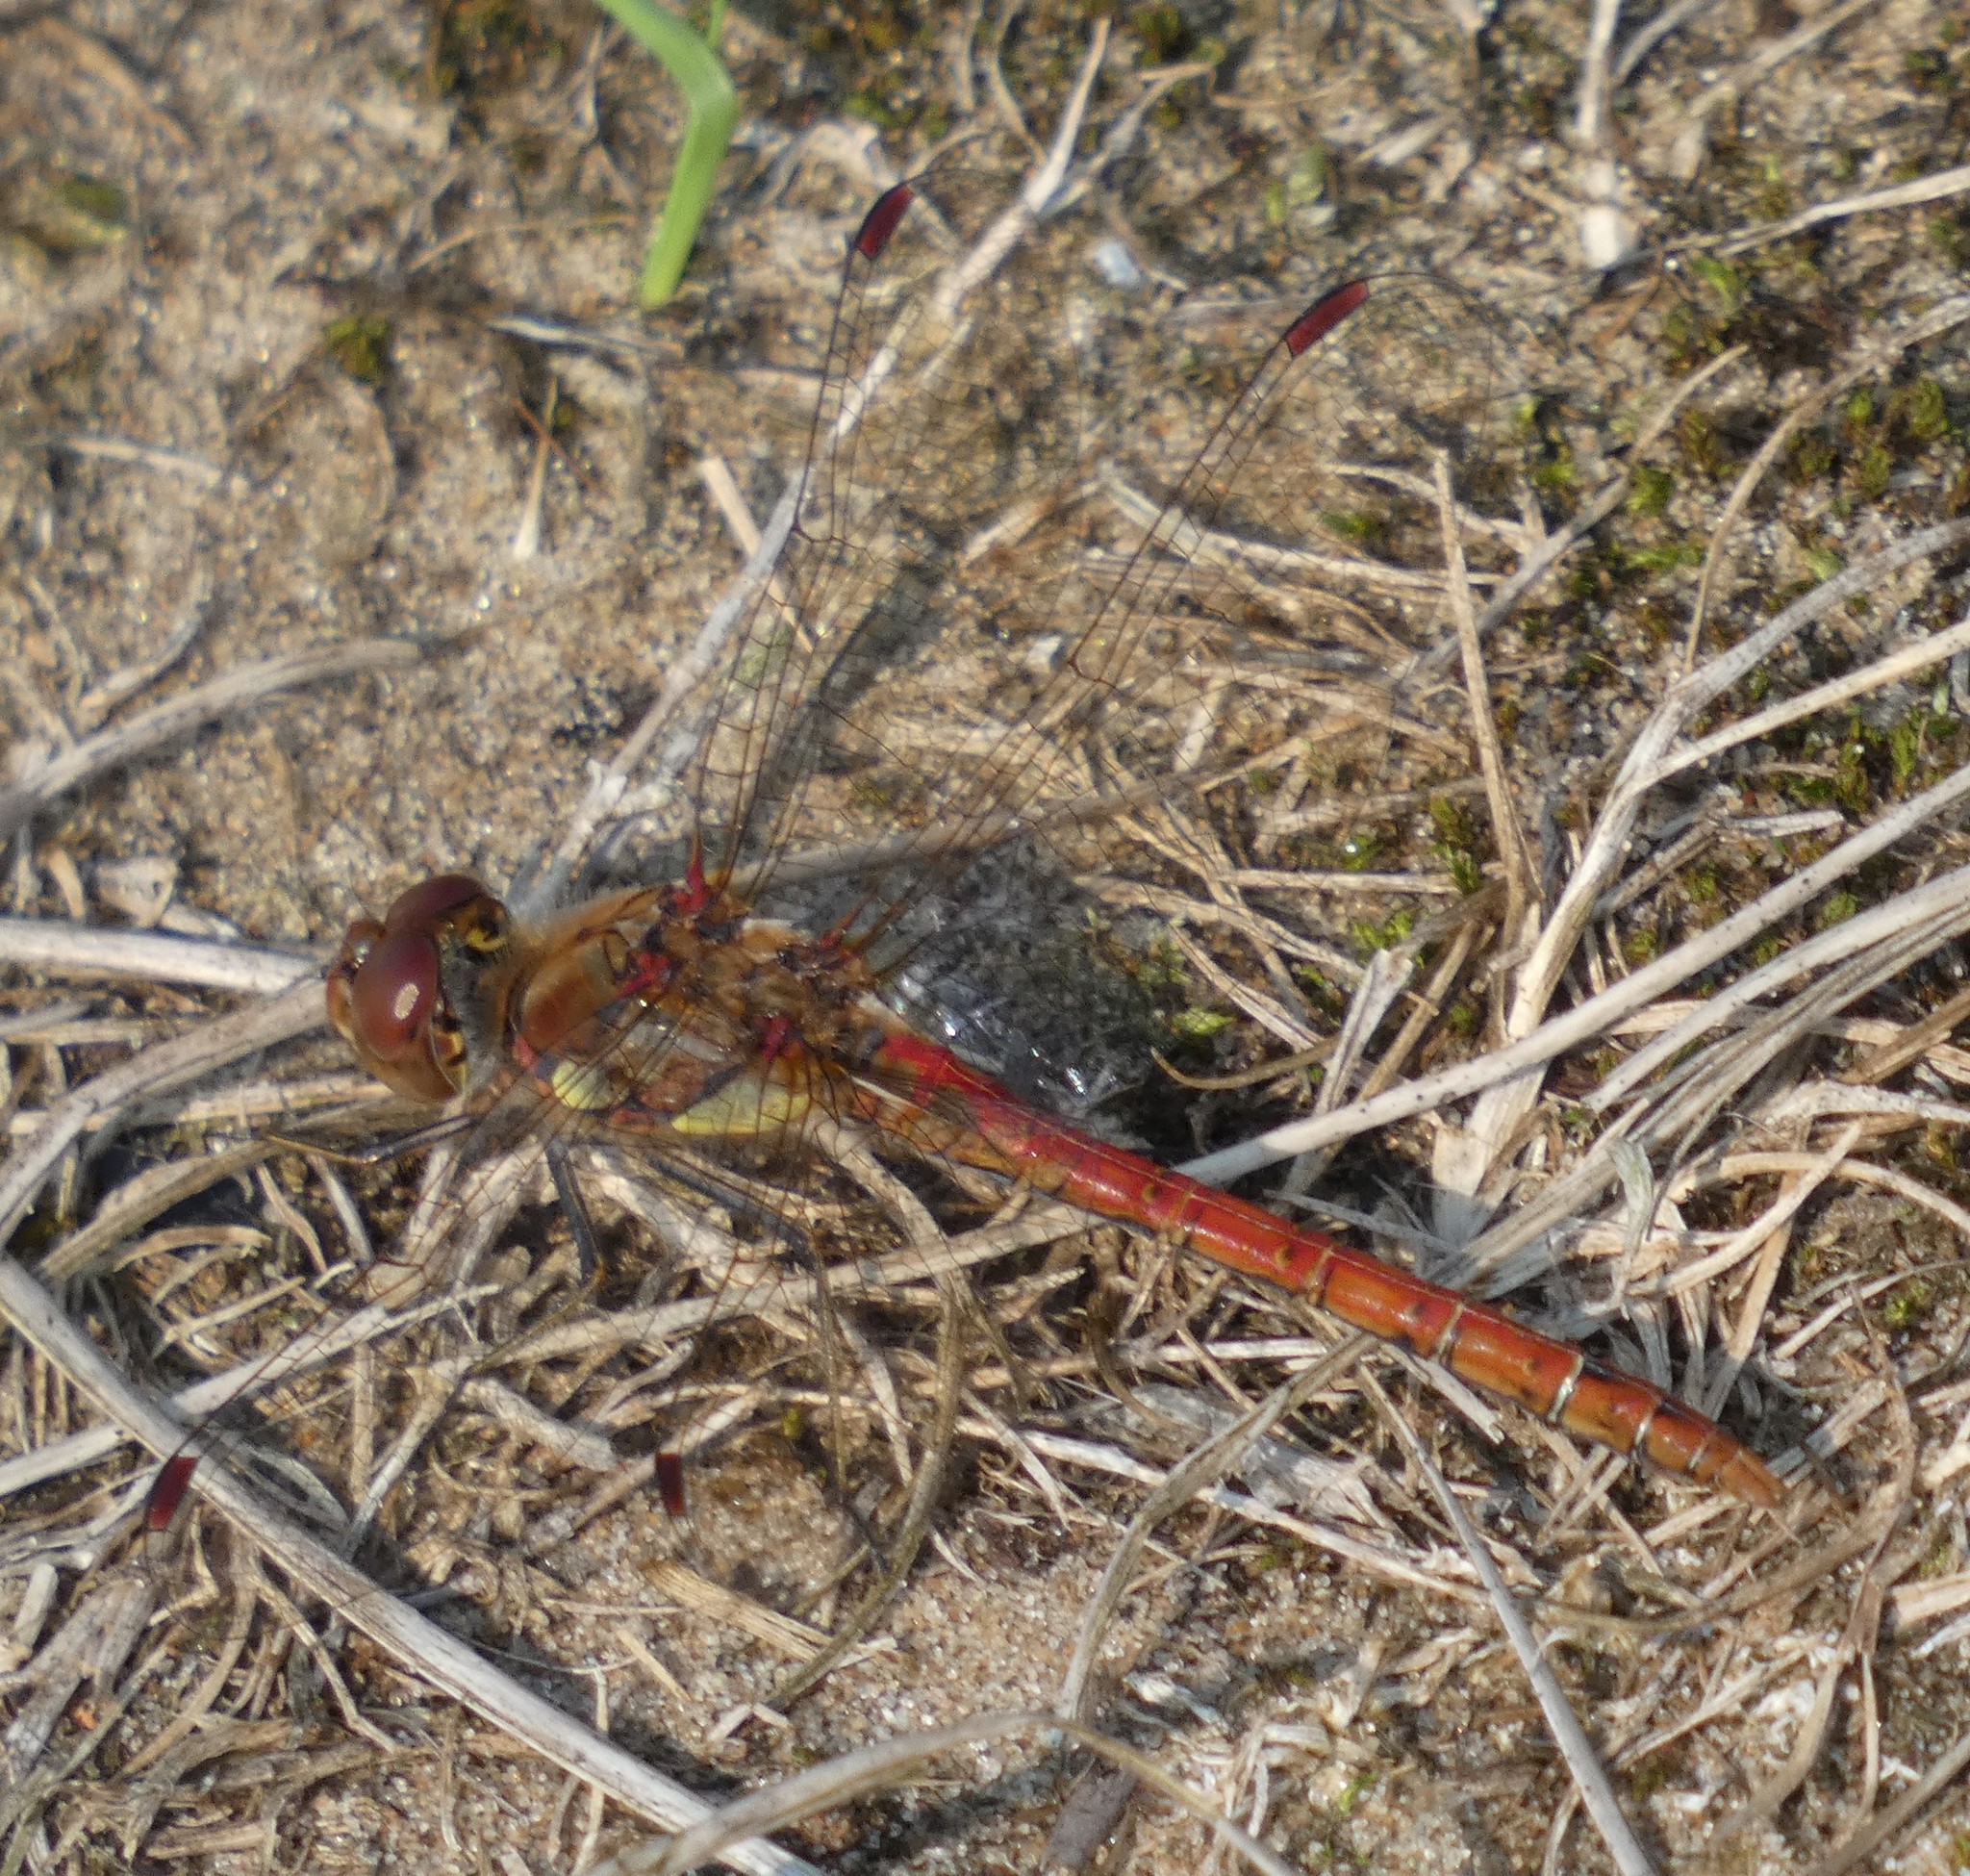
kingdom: Animalia
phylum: Arthropoda
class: Insecta
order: Odonata
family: Libellulidae
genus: Sympetrum
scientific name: Sympetrum striolatum
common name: Common darter
